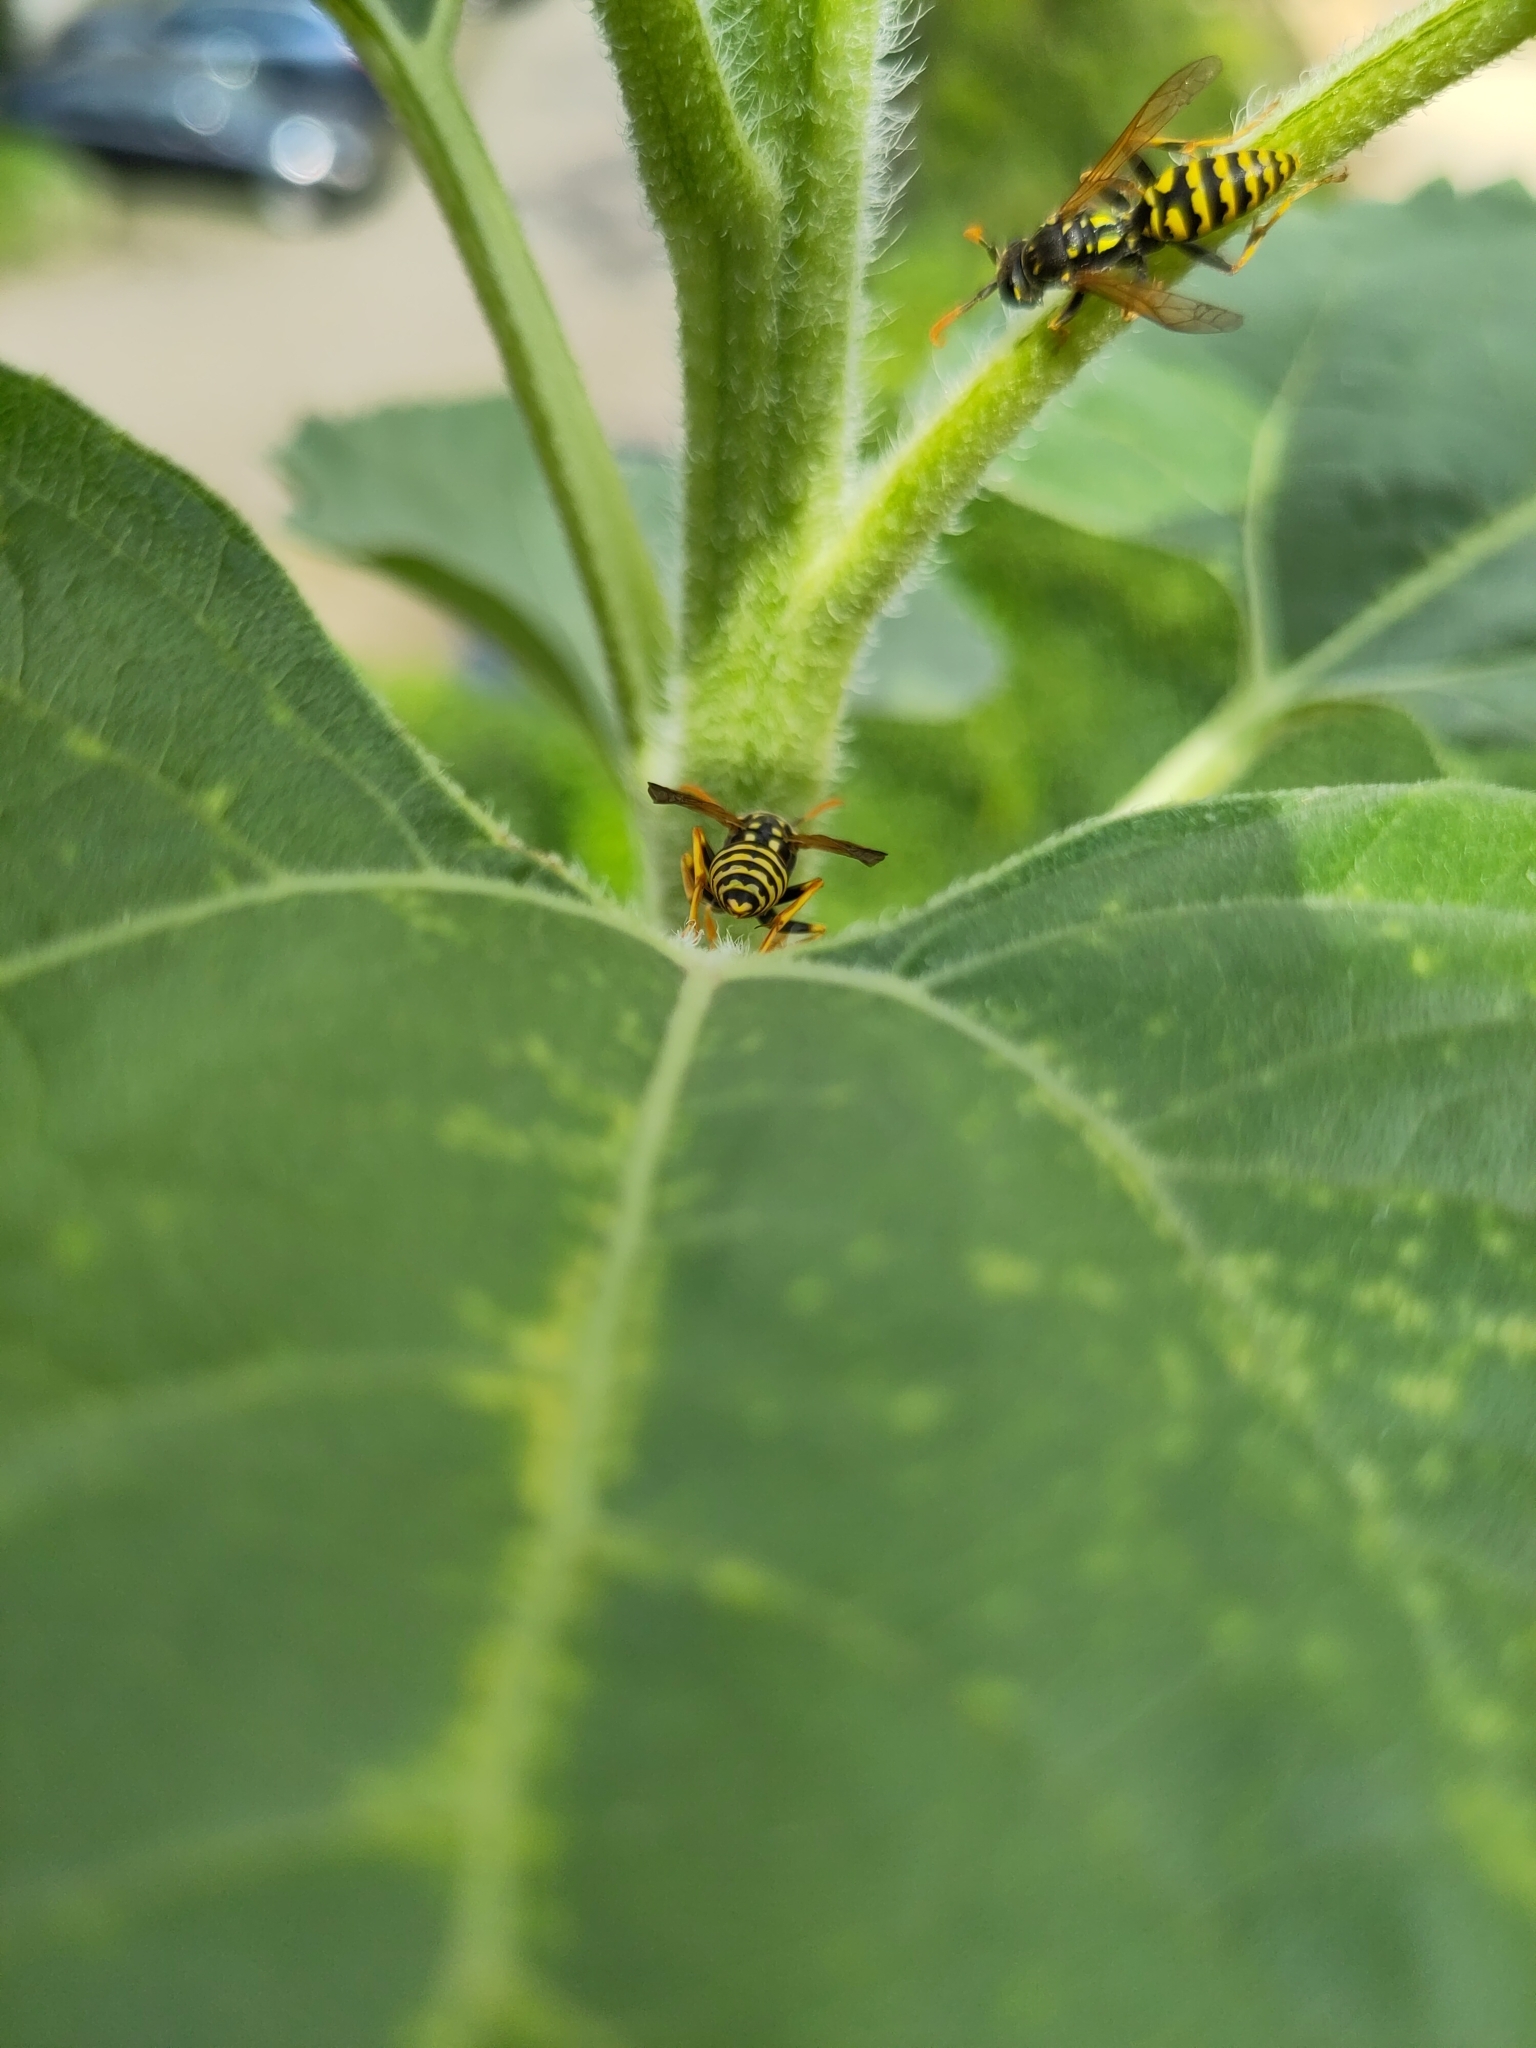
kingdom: Animalia
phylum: Arthropoda
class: Insecta
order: Hymenoptera
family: Eumenidae
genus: Polistes
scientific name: Polistes dominula
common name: Paper wasp
